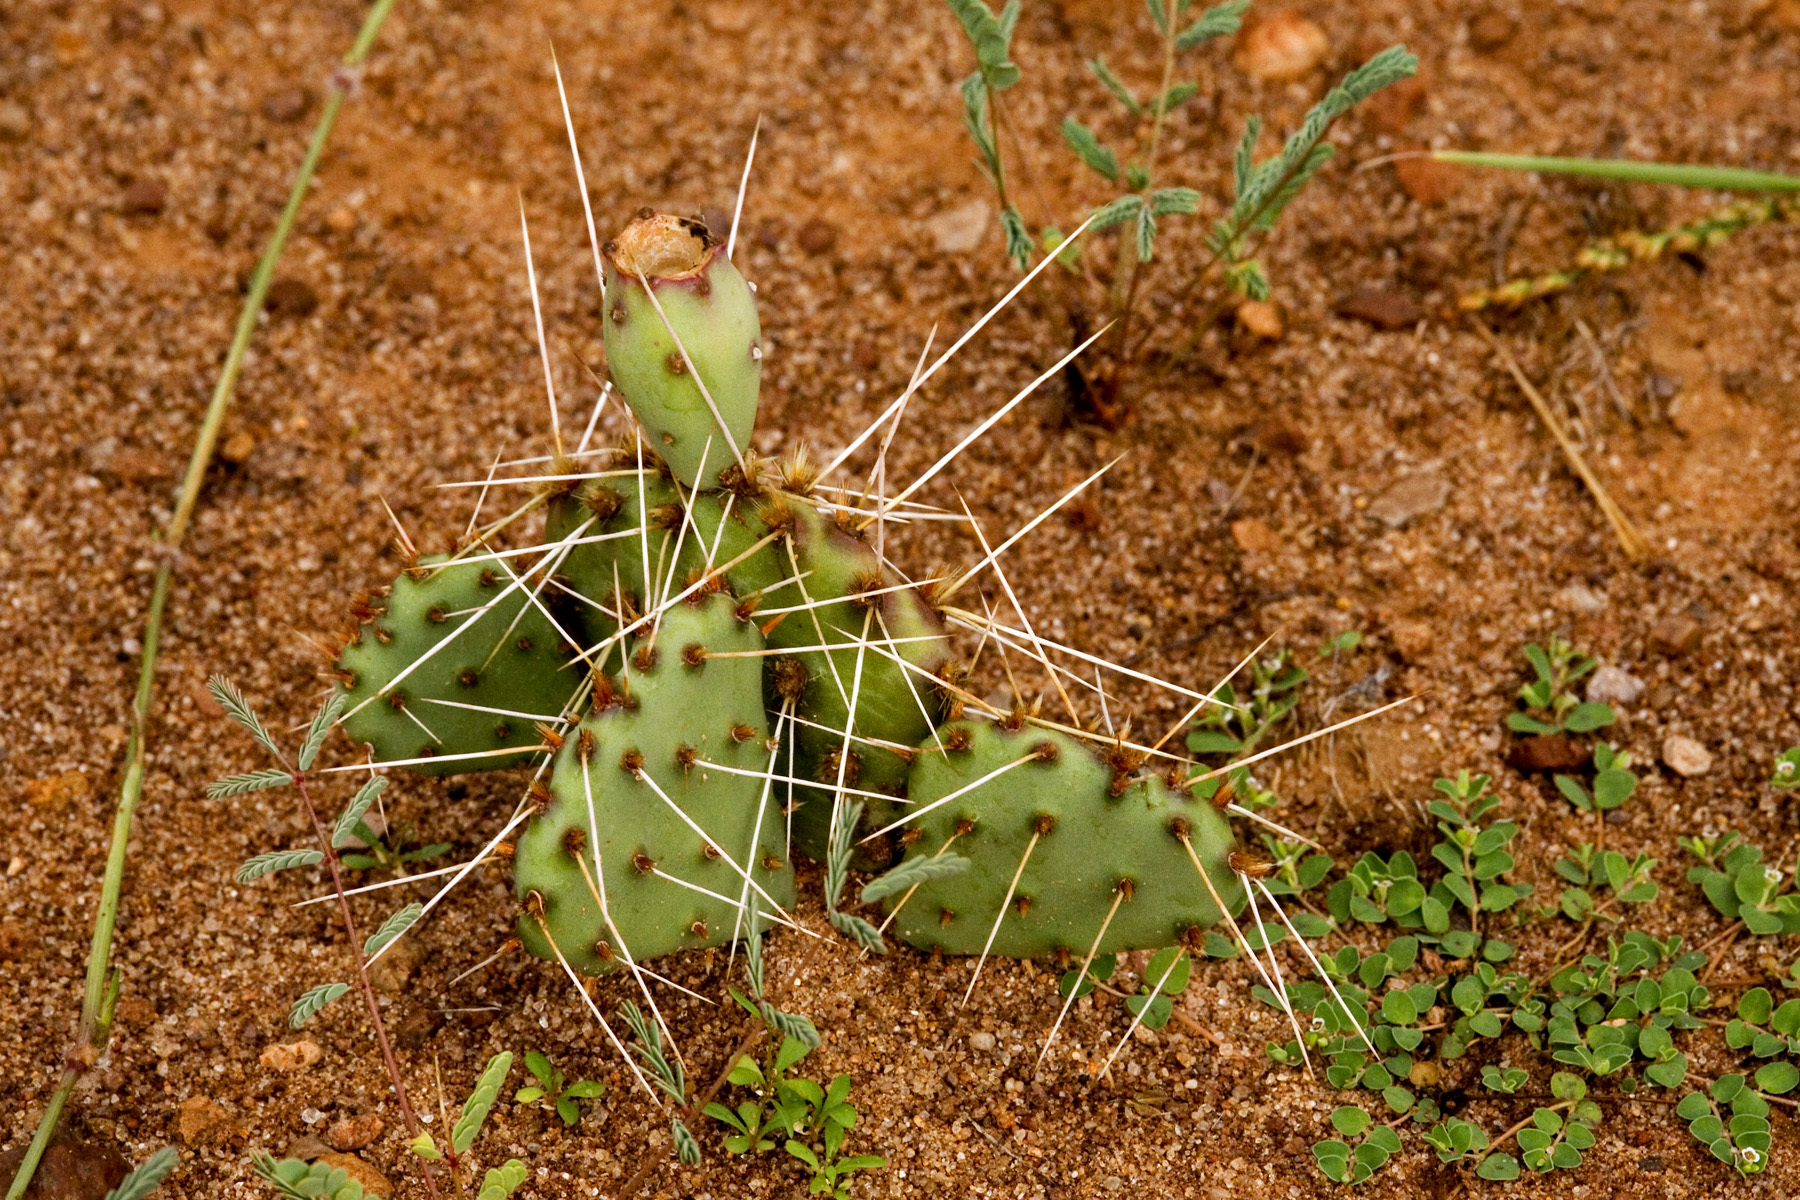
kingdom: Plantae
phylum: Tracheophyta
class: Magnoliopsida
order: Caryophyllales
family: Cactaceae
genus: Opuntia
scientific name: Opuntia pottsii
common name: Potts's prickly-pear
